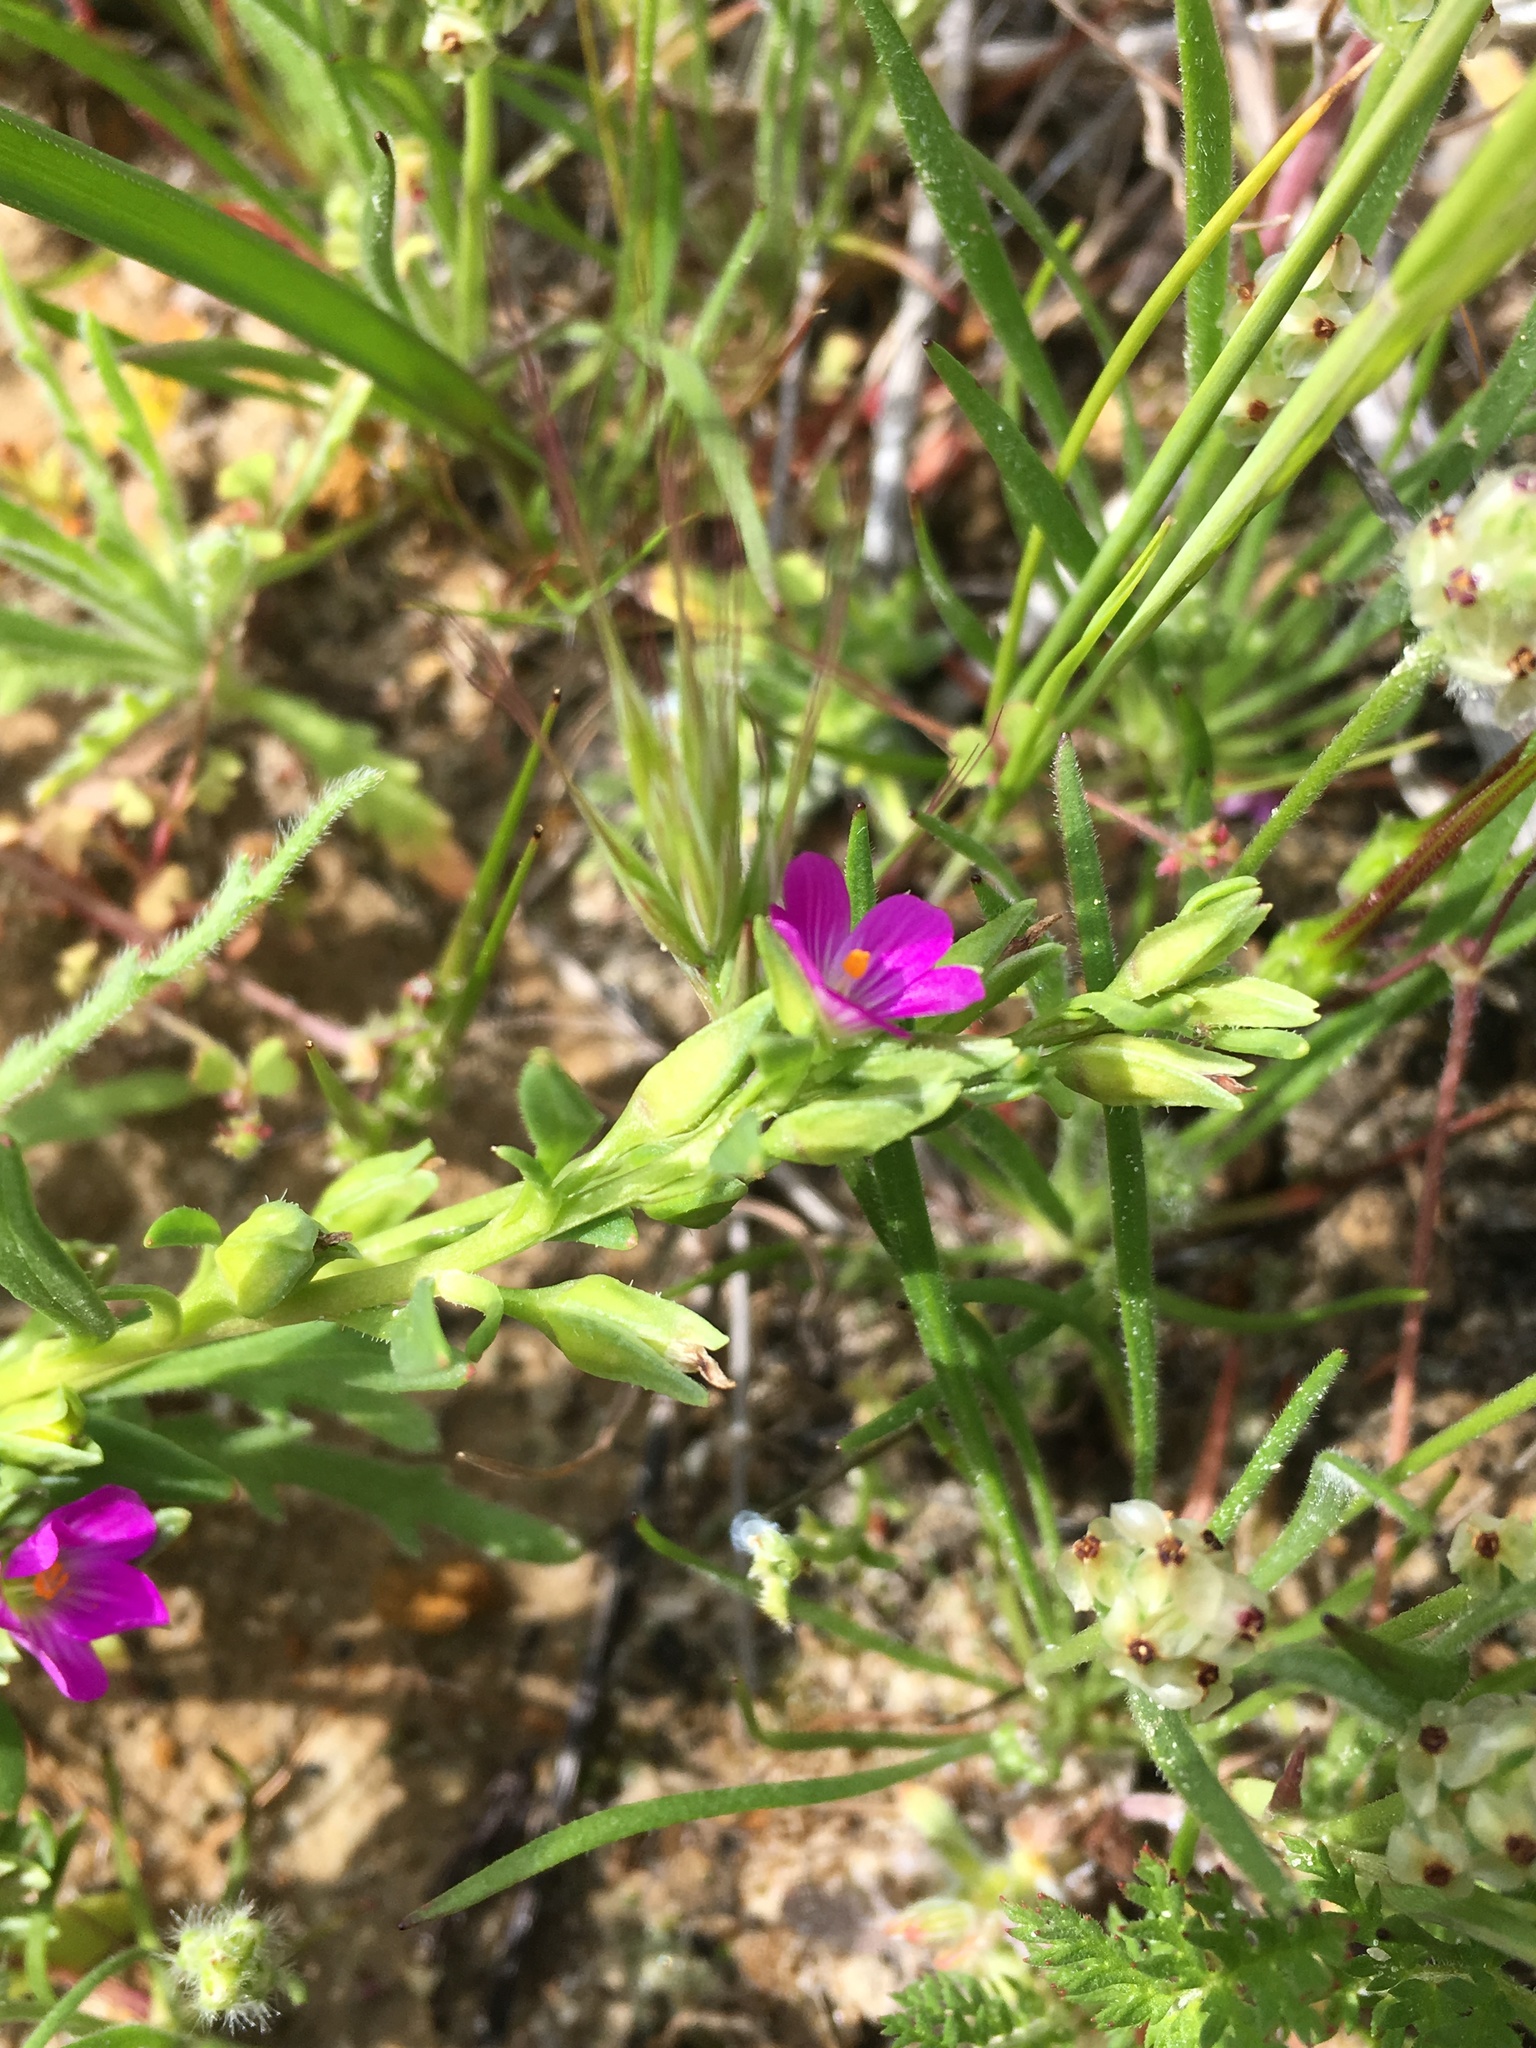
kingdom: Plantae
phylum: Tracheophyta
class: Magnoliopsida
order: Caryophyllales
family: Montiaceae
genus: Calandrinia
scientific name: Calandrinia menziesii
